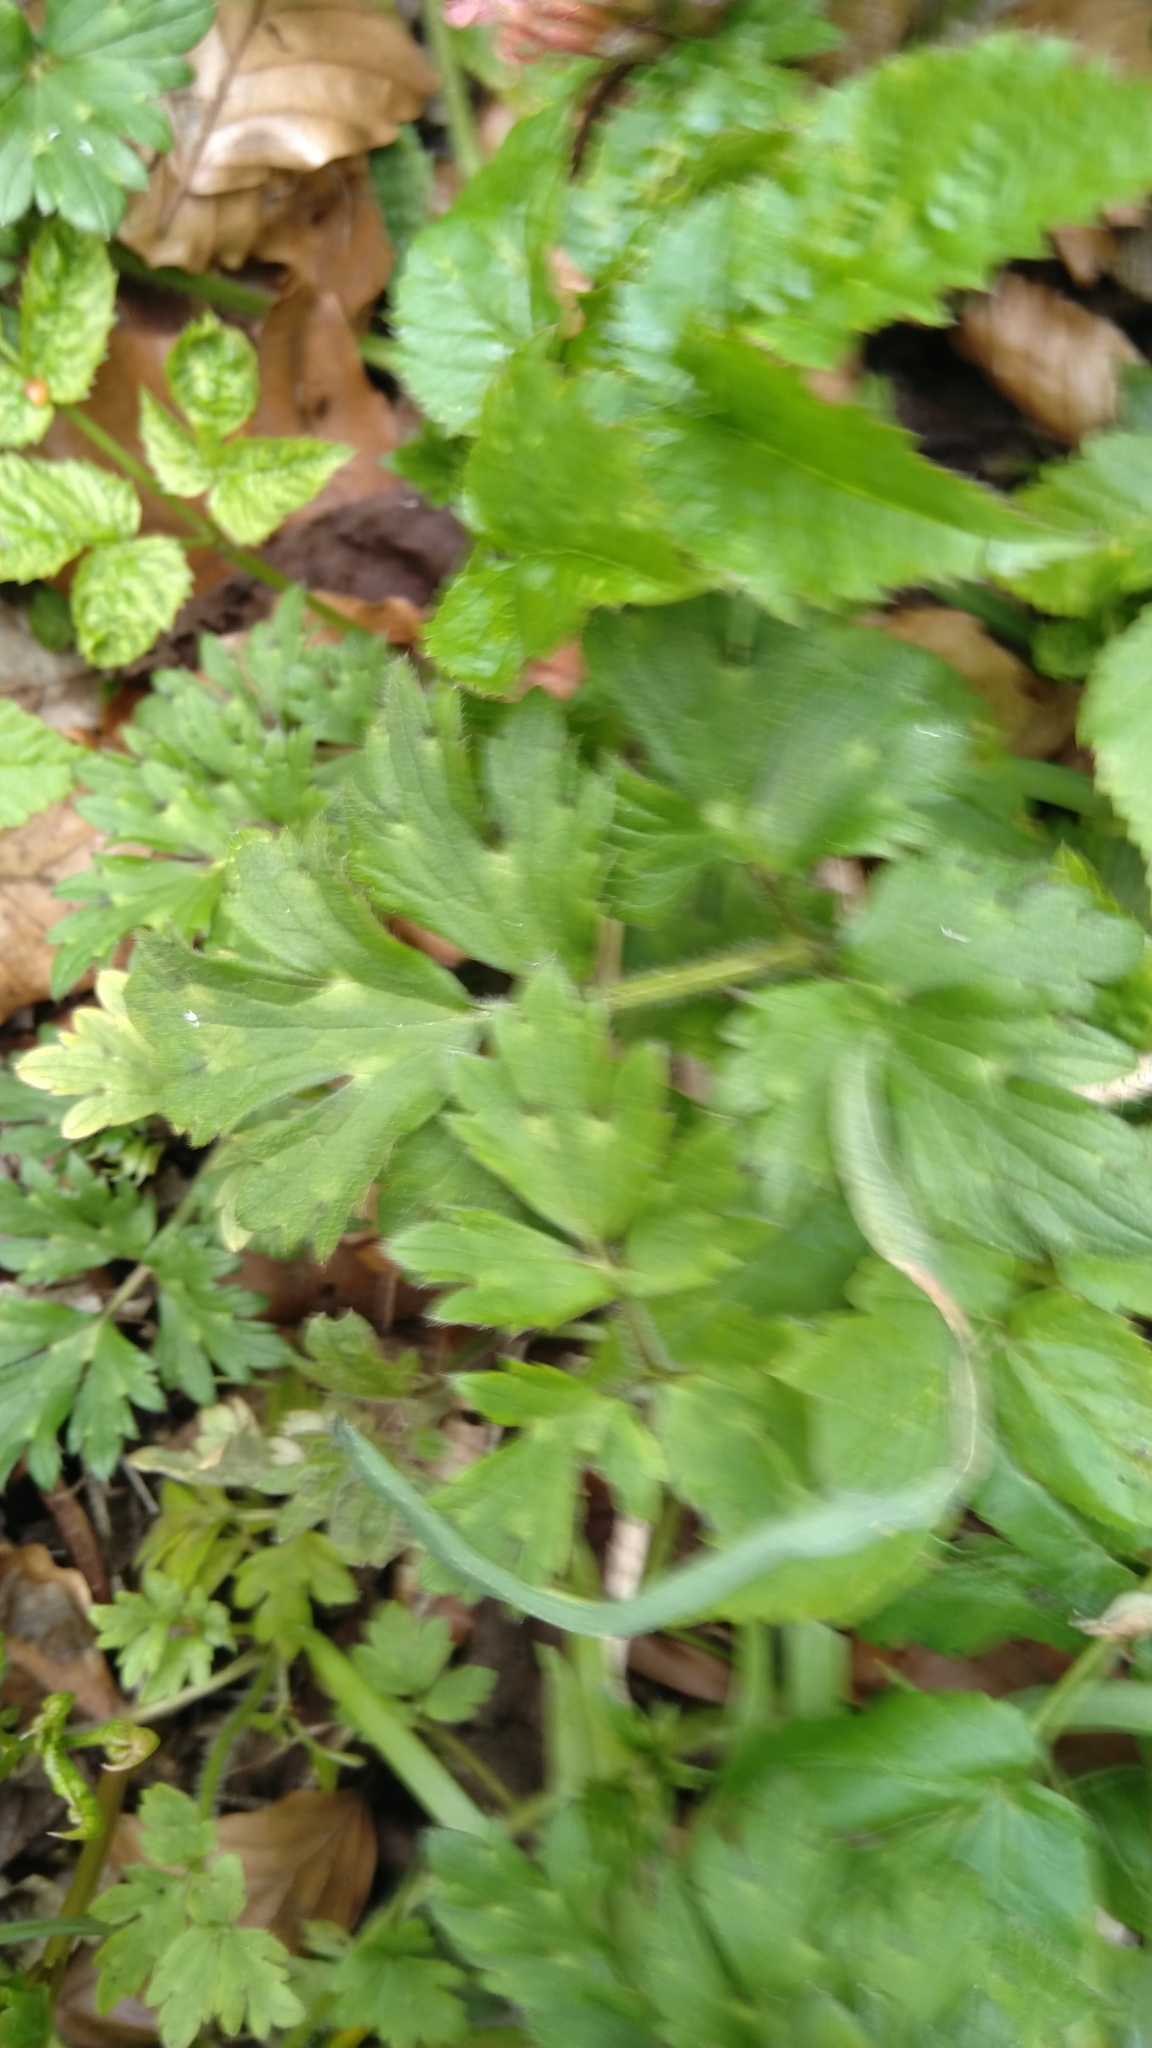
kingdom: Plantae
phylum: Tracheophyta
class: Magnoliopsida
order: Ranunculales
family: Ranunculaceae
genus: Ranunculus
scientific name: Ranunculus repens
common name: Creeping buttercup
